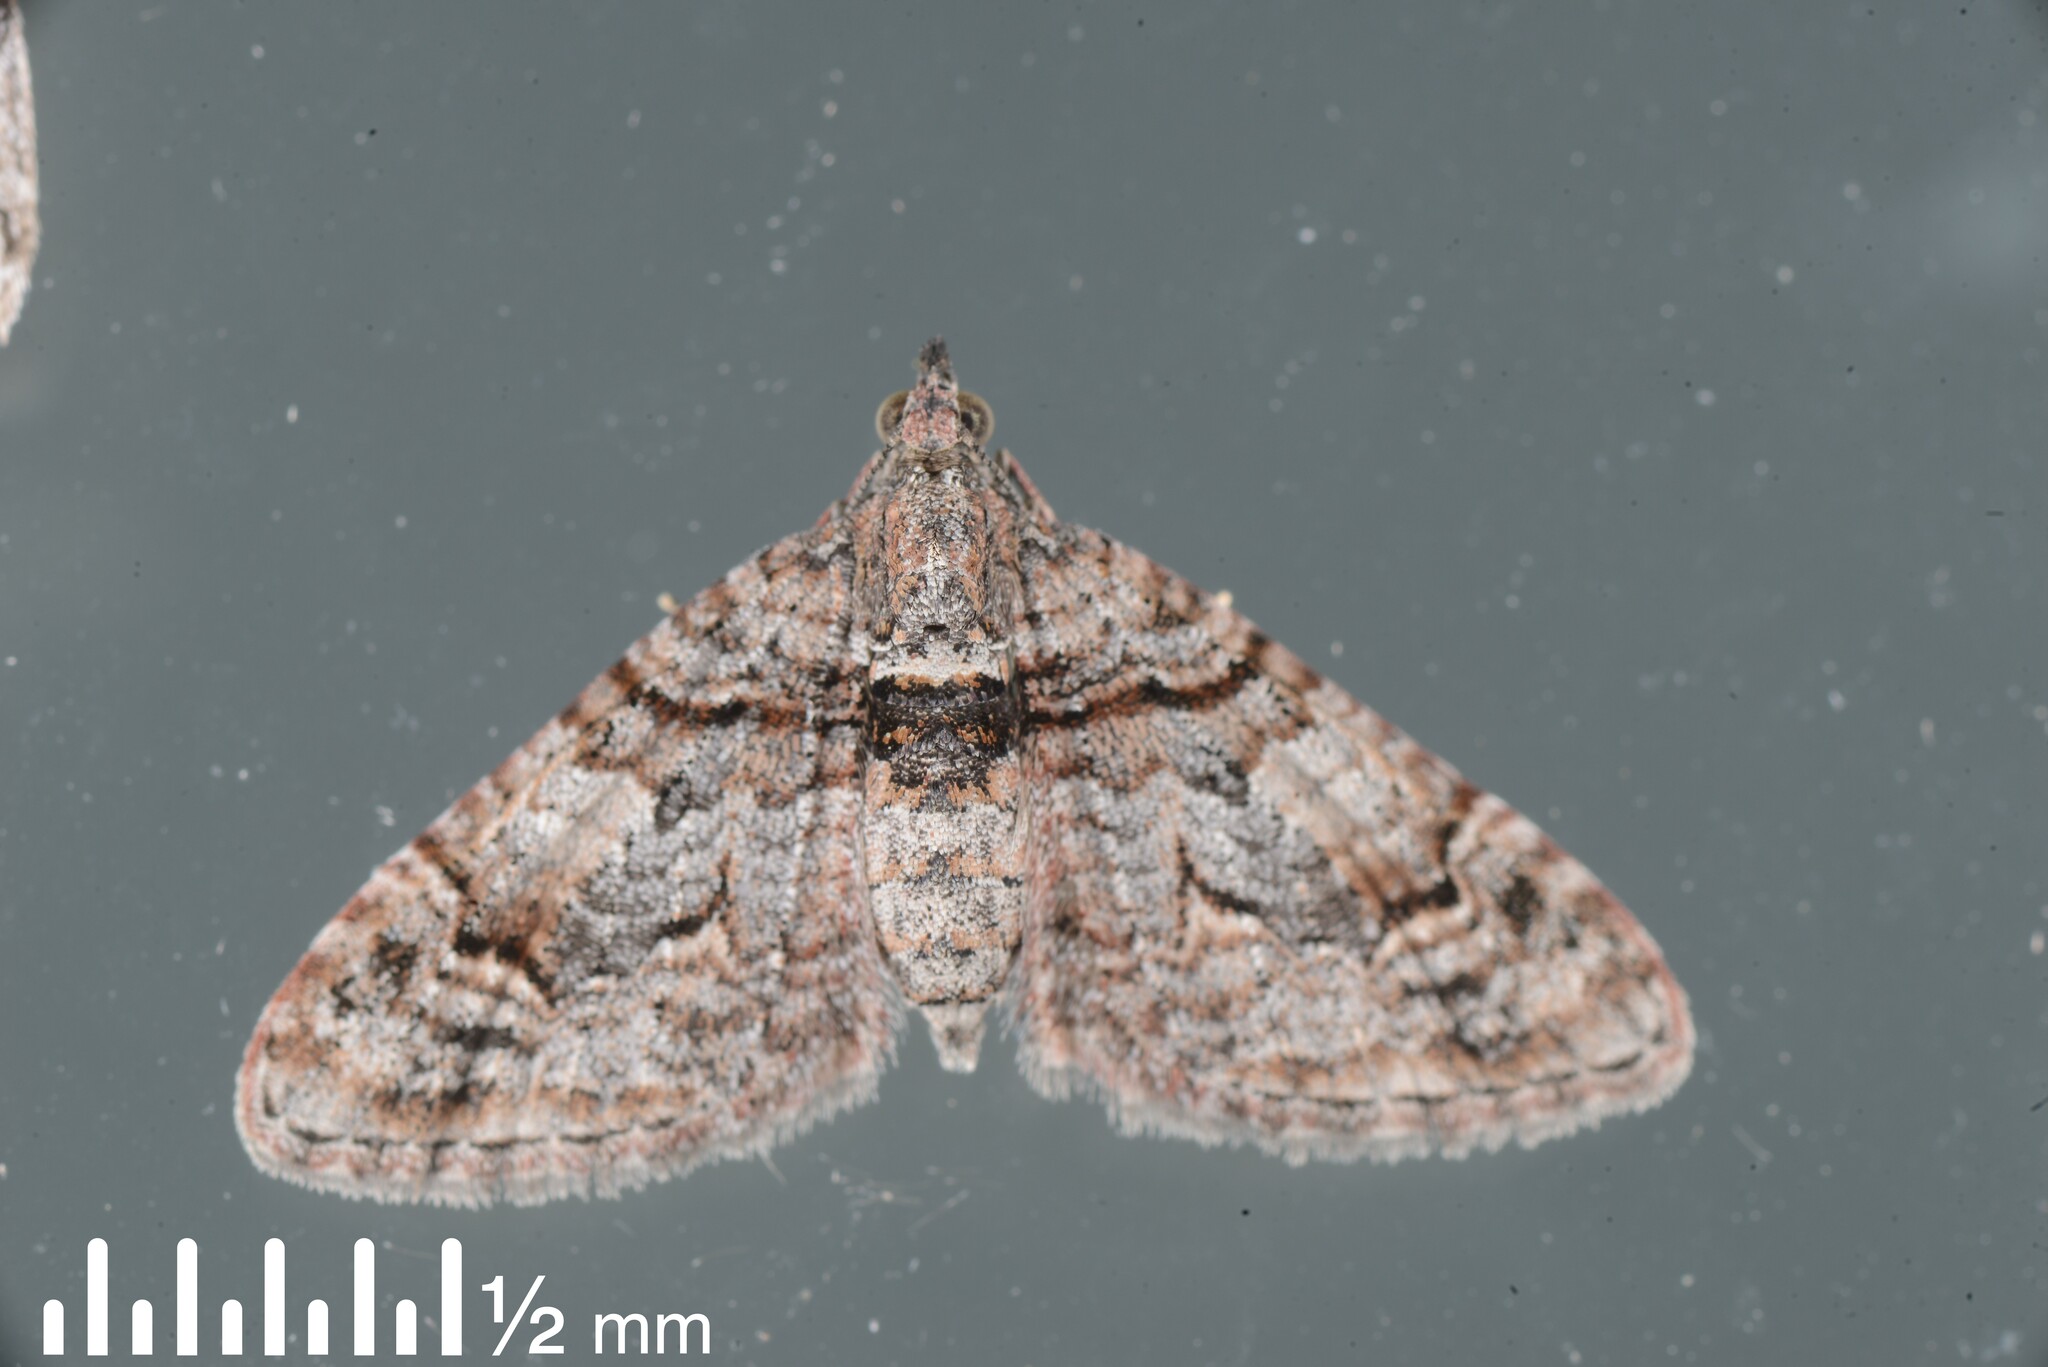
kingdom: Animalia
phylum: Arthropoda
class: Insecta
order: Lepidoptera
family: Geometridae
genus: Phrissogonus
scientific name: Phrissogonus laticostata
